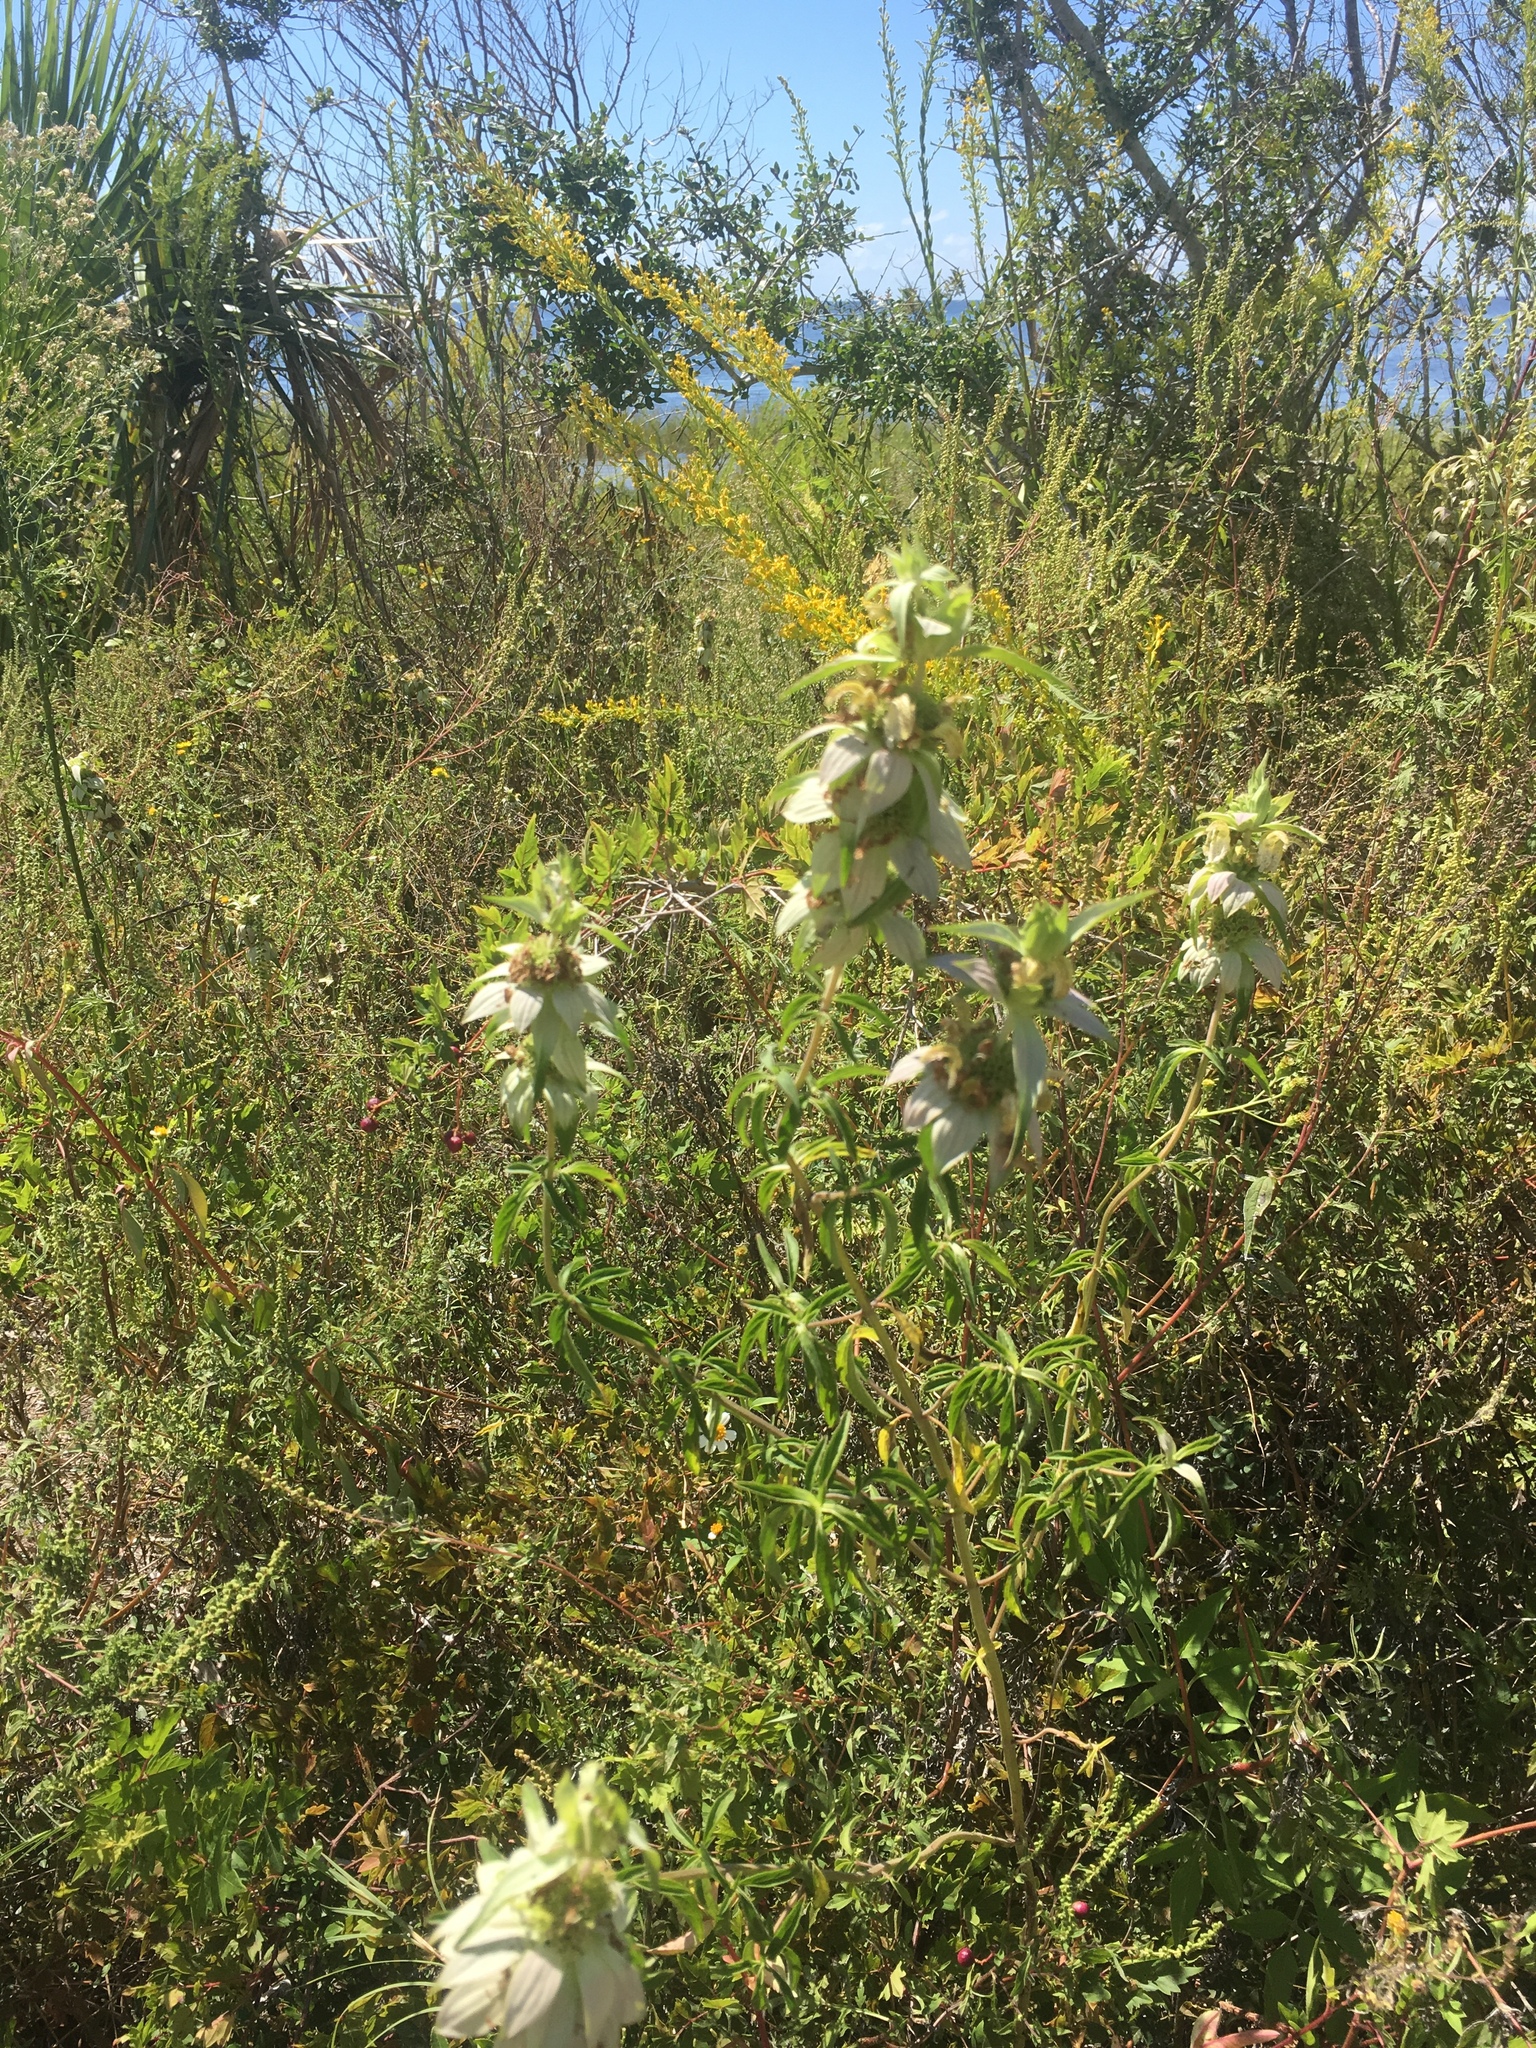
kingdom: Plantae
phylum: Tracheophyta
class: Magnoliopsida
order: Lamiales
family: Lamiaceae
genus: Monarda
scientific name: Monarda punctata
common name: Dotted monarda
